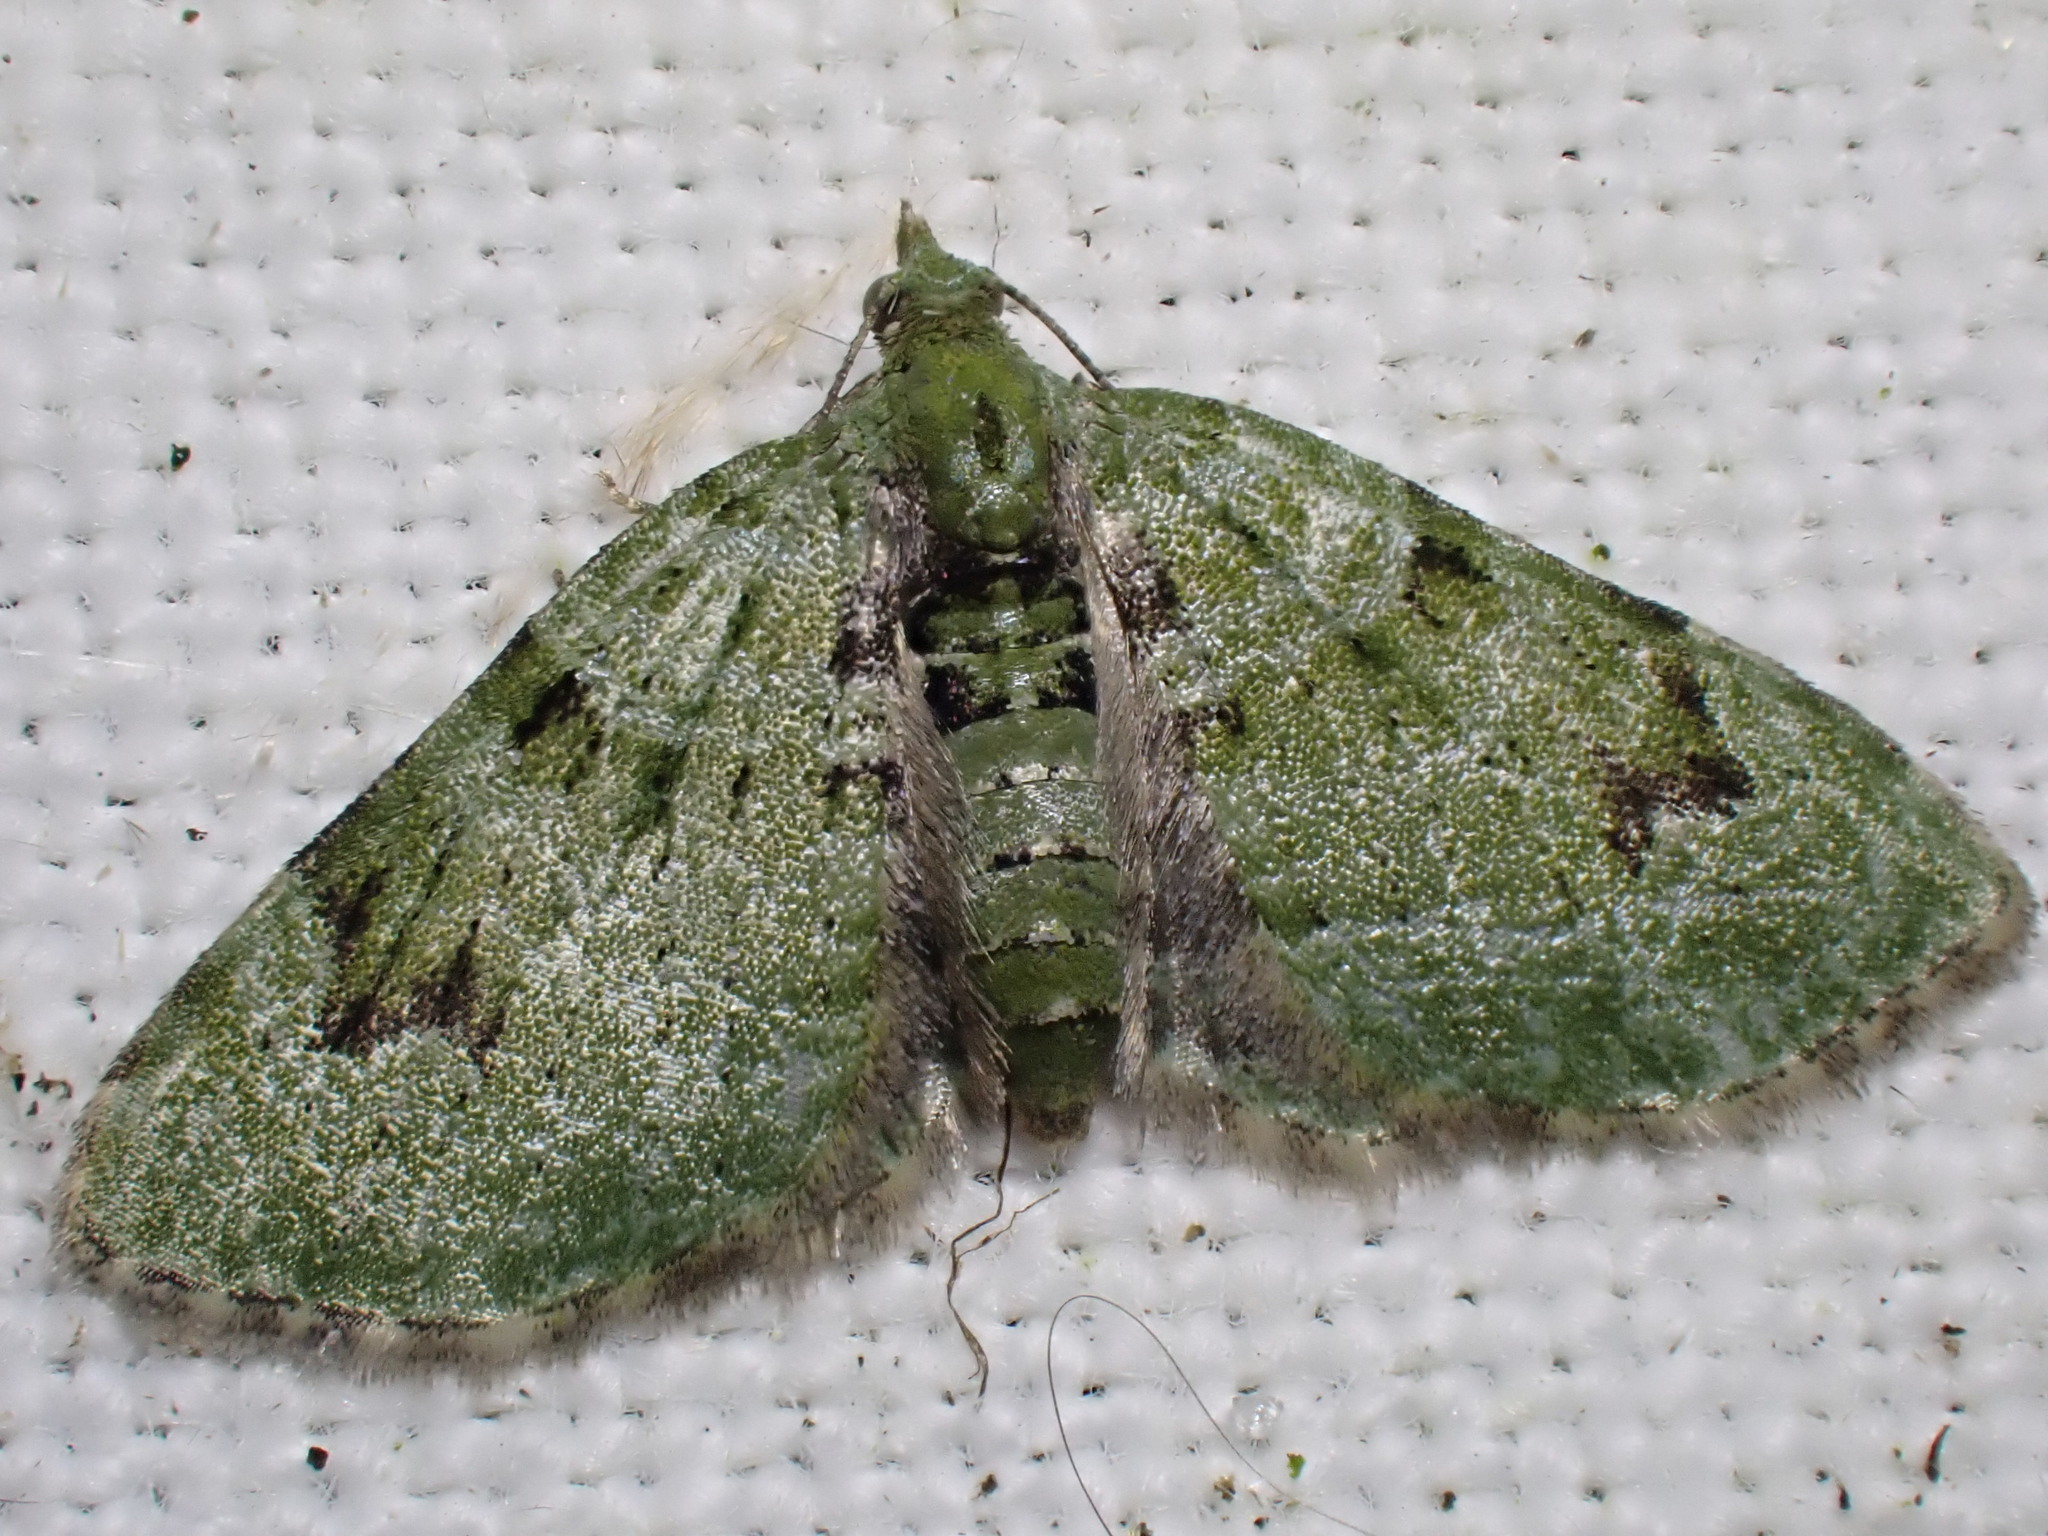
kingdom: Animalia
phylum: Arthropoda
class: Insecta
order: Lepidoptera
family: Geometridae
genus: Chloroclystis
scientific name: Chloroclystis v-ata
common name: V-pug
